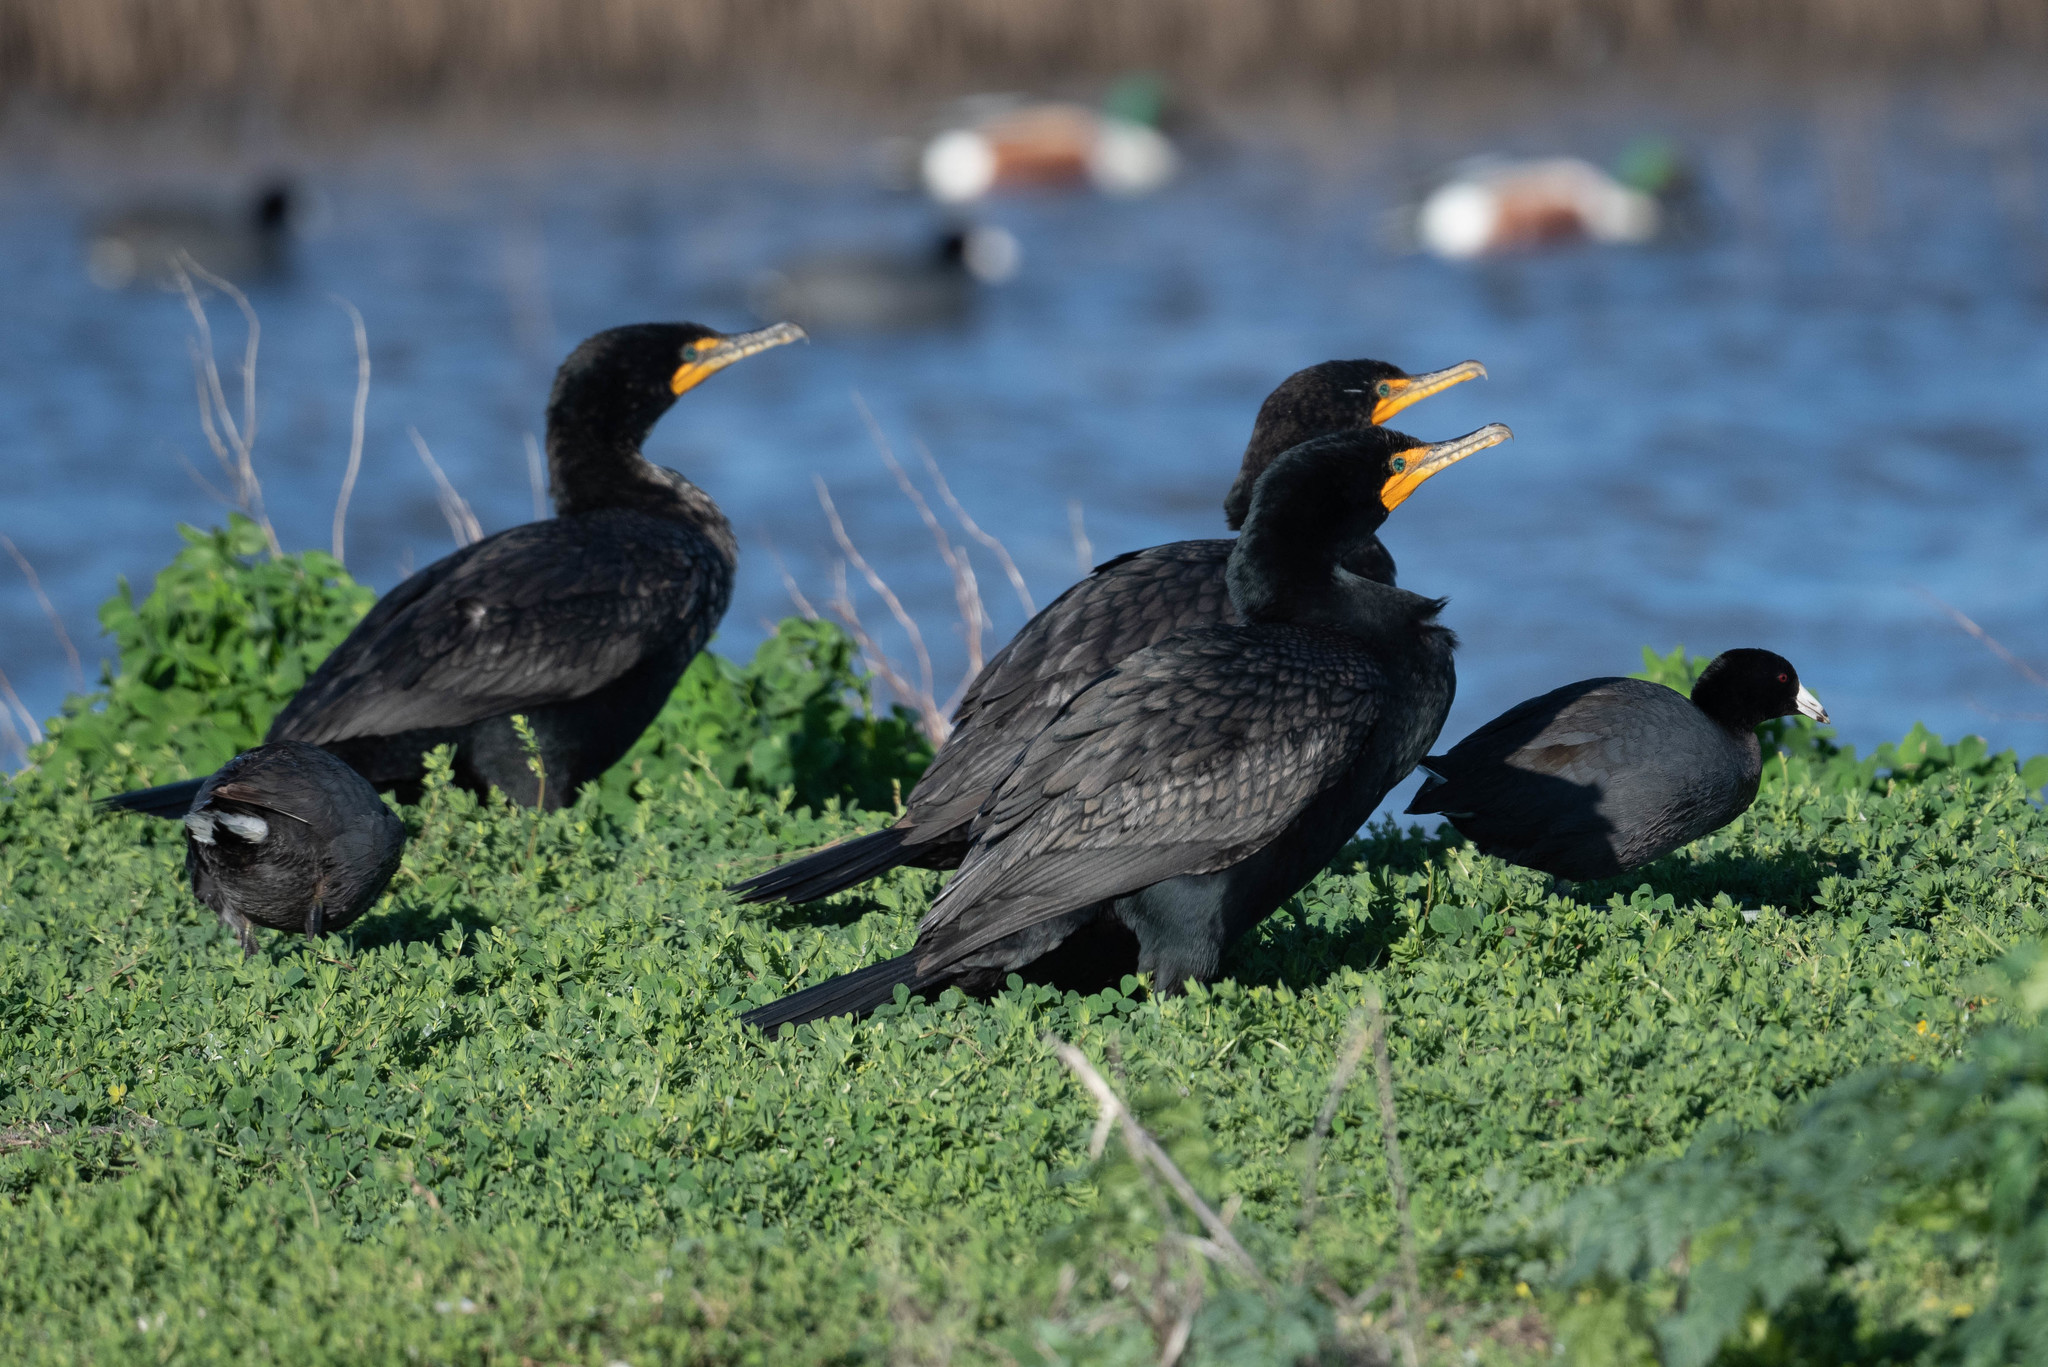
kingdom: Animalia
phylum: Chordata
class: Aves
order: Suliformes
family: Phalacrocoracidae
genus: Phalacrocorax
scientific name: Phalacrocorax auritus
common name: Double-crested cormorant
